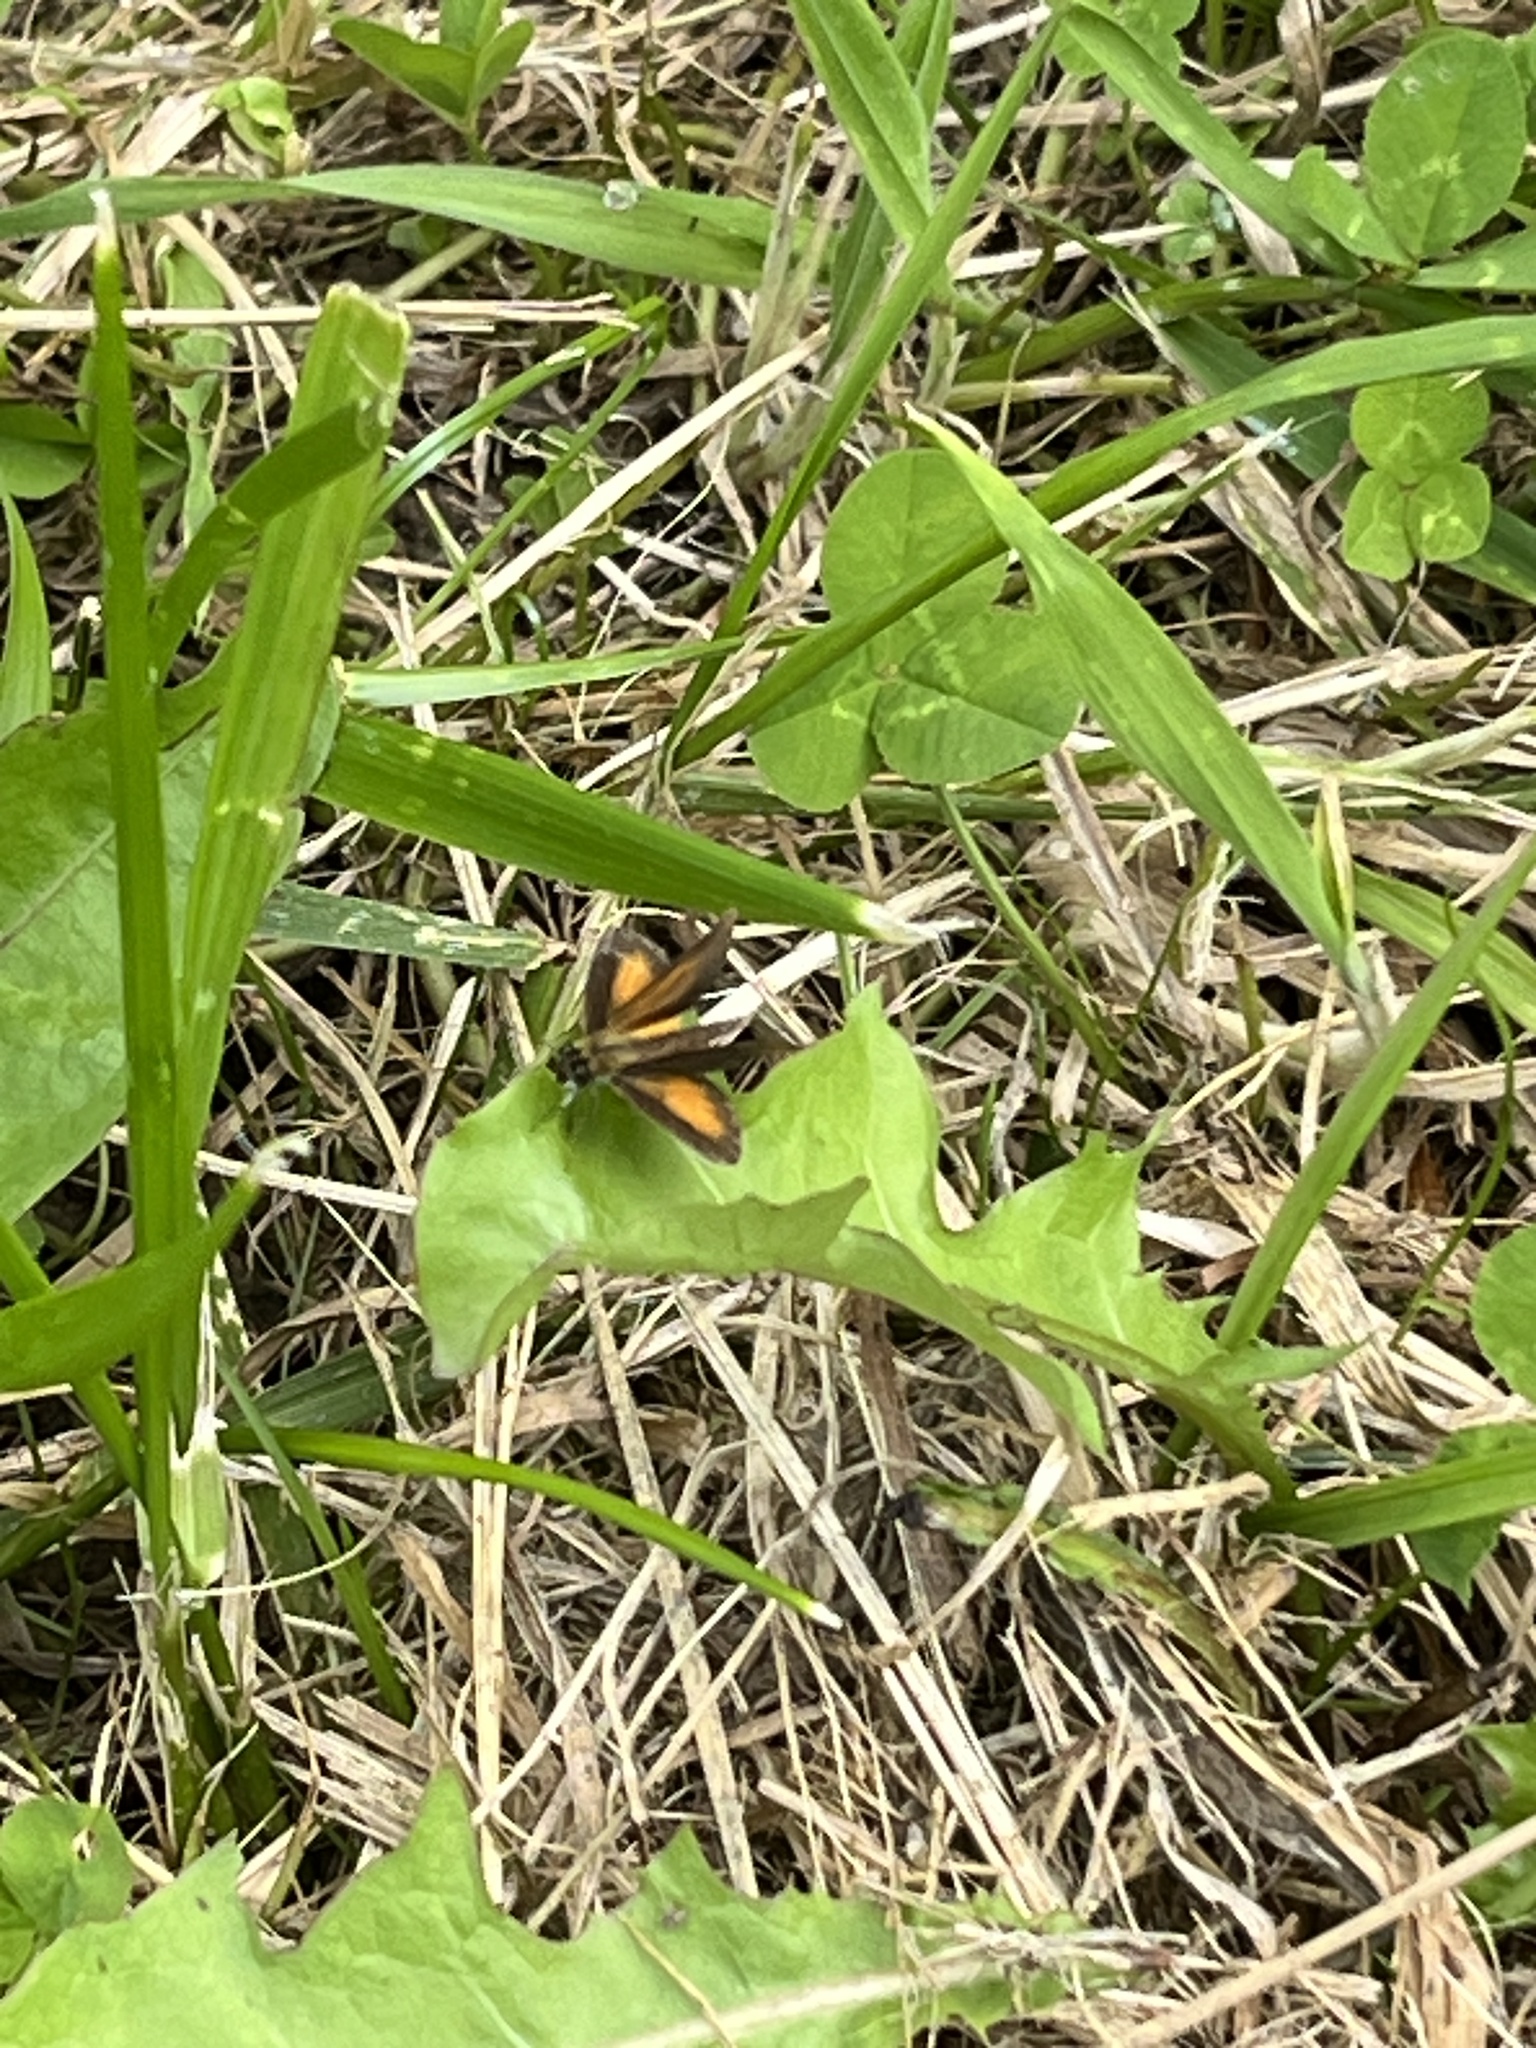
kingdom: Animalia
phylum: Arthropoda
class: Insecta
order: Lepidoptera
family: Hesperiidae
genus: Ancyloxypha
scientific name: Ancyloxypha numitor
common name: Least skipper
